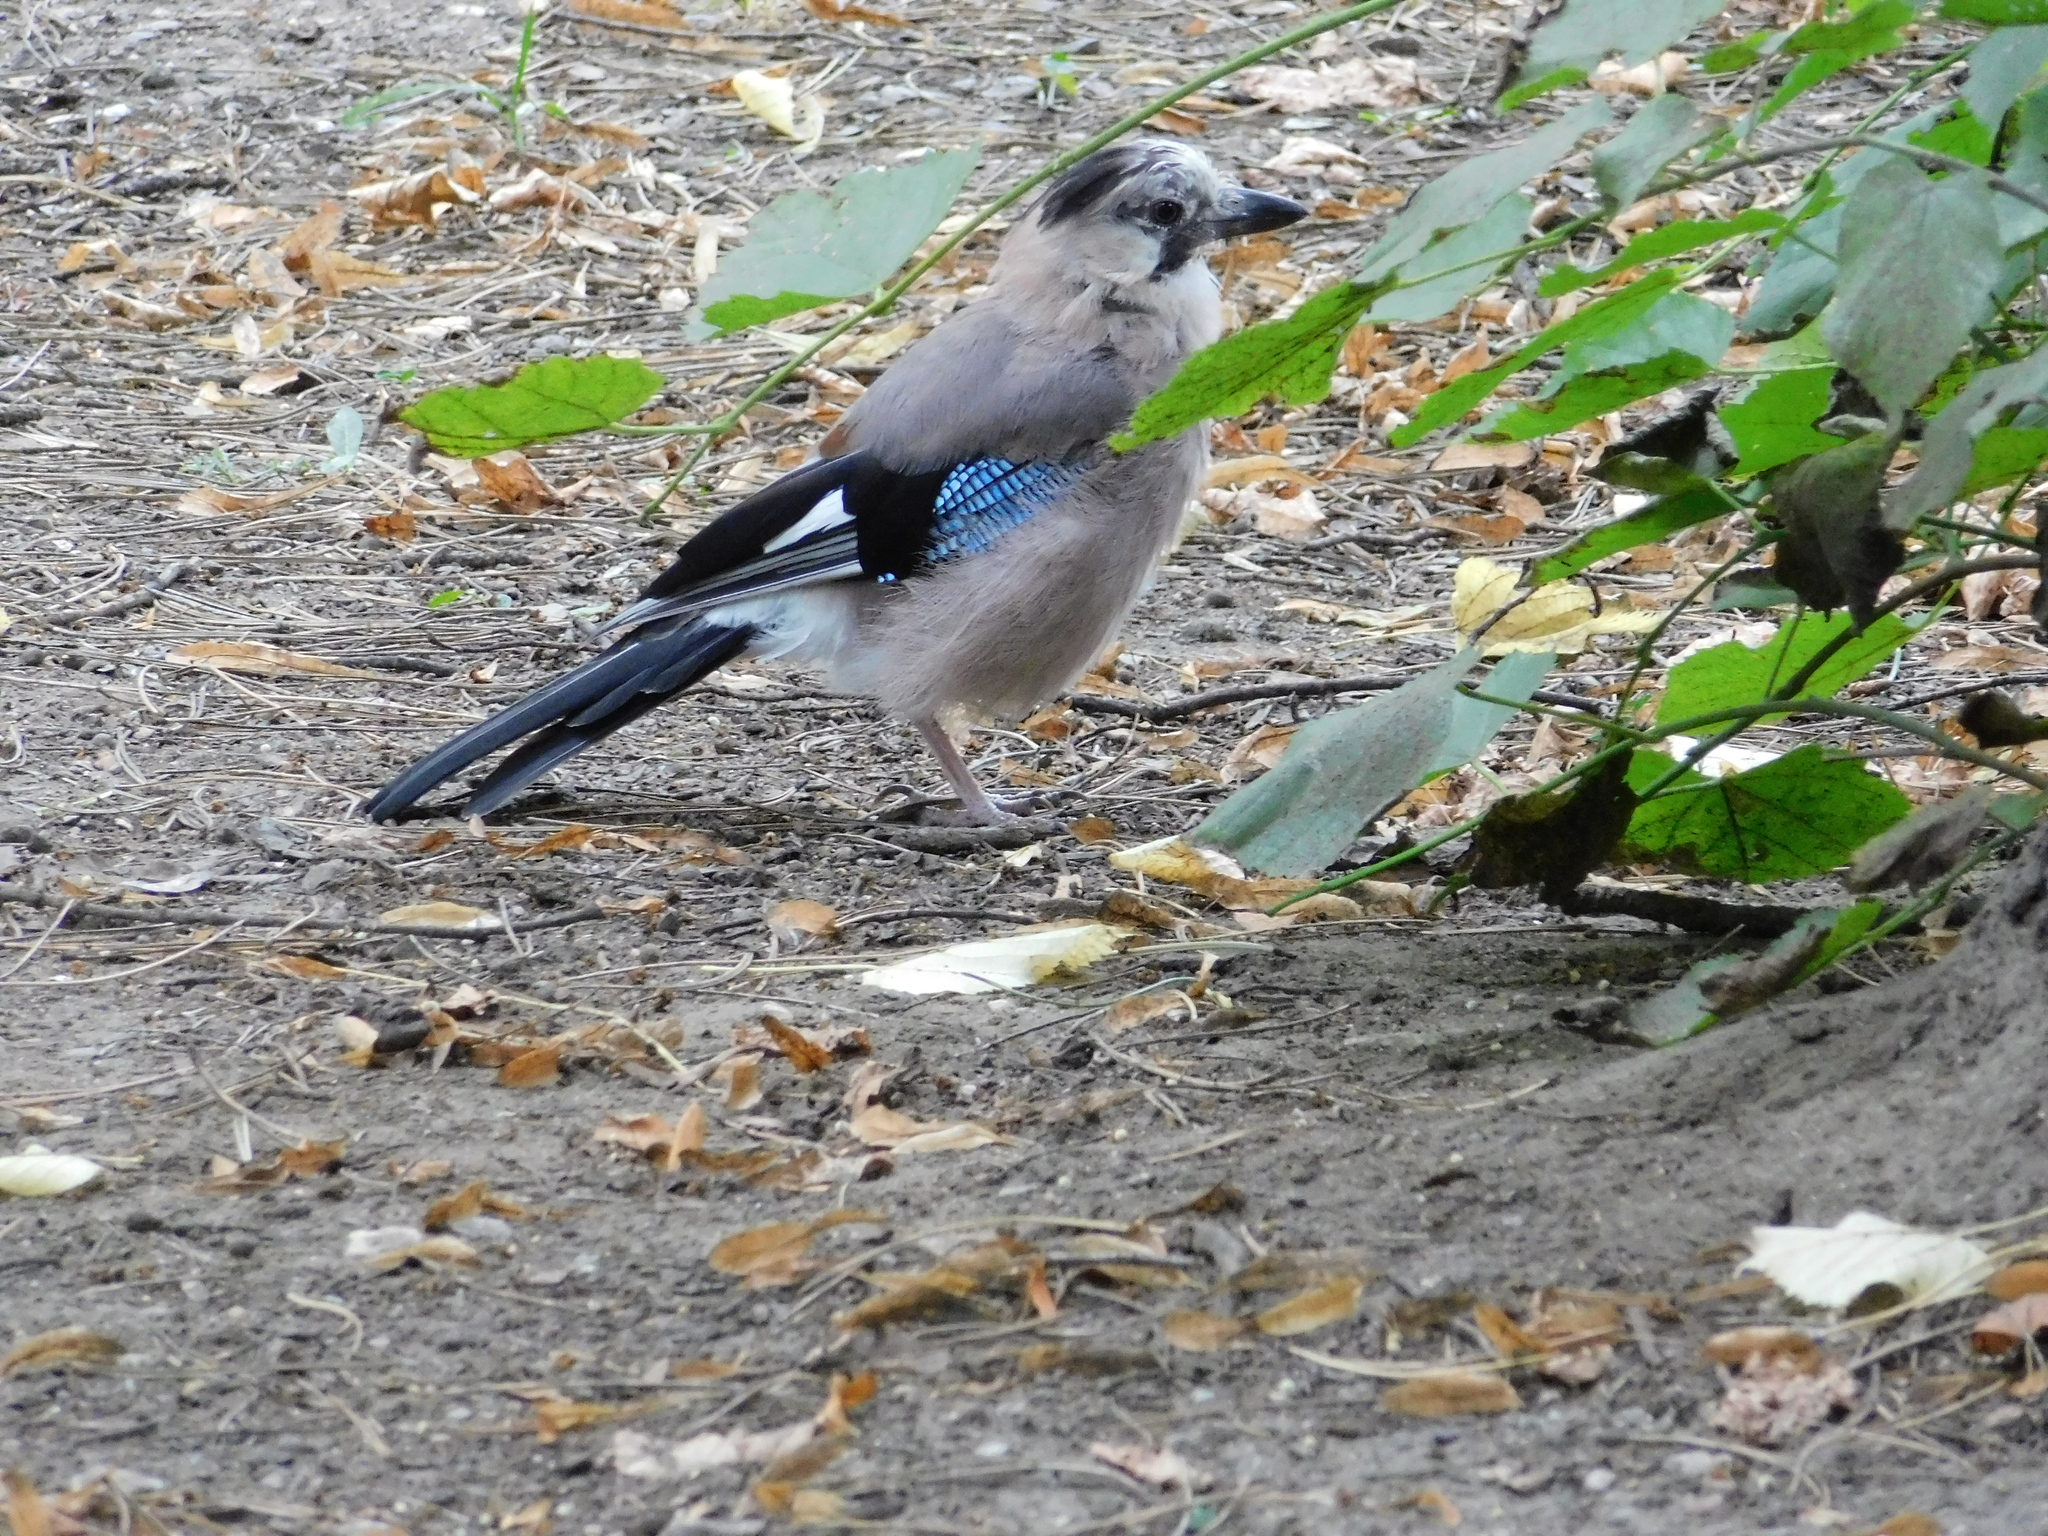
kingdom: Animalia
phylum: Chordata
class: Aves
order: Passeriformes
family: Corvidae
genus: Garrulus
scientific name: Garrulus glandarius
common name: Eurasian jay
